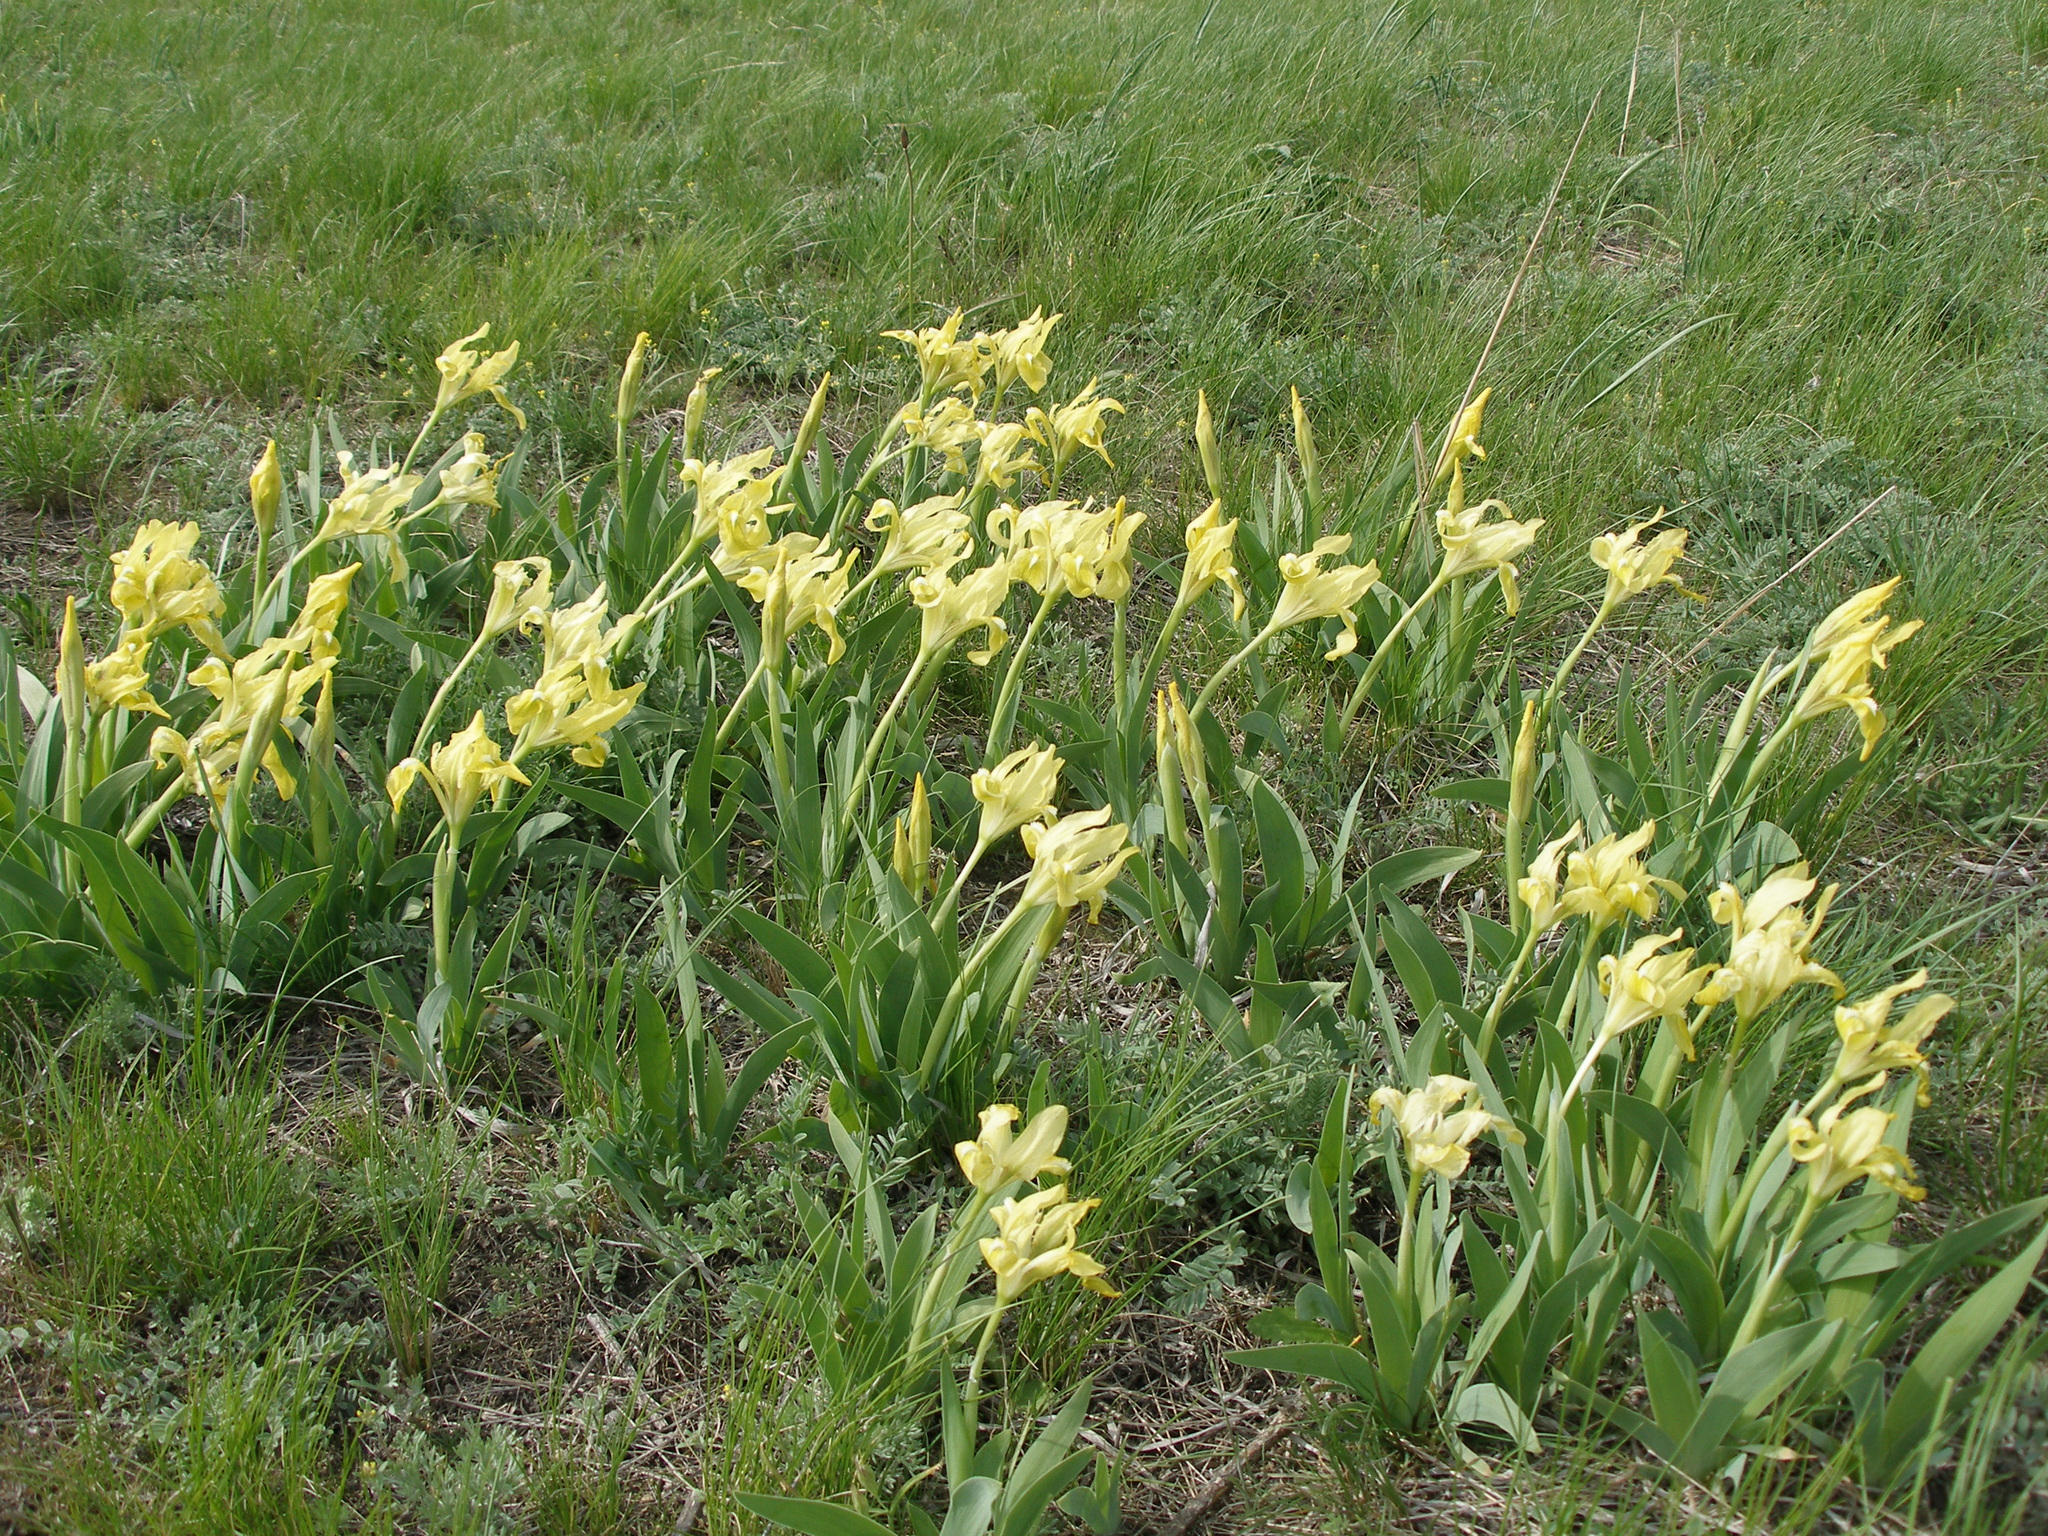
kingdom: Plantae
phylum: Tracheophyta
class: Liliopsida
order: Asparagales
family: Iridaceae
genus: Iris
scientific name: Iris pumila
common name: Dwarf iris
